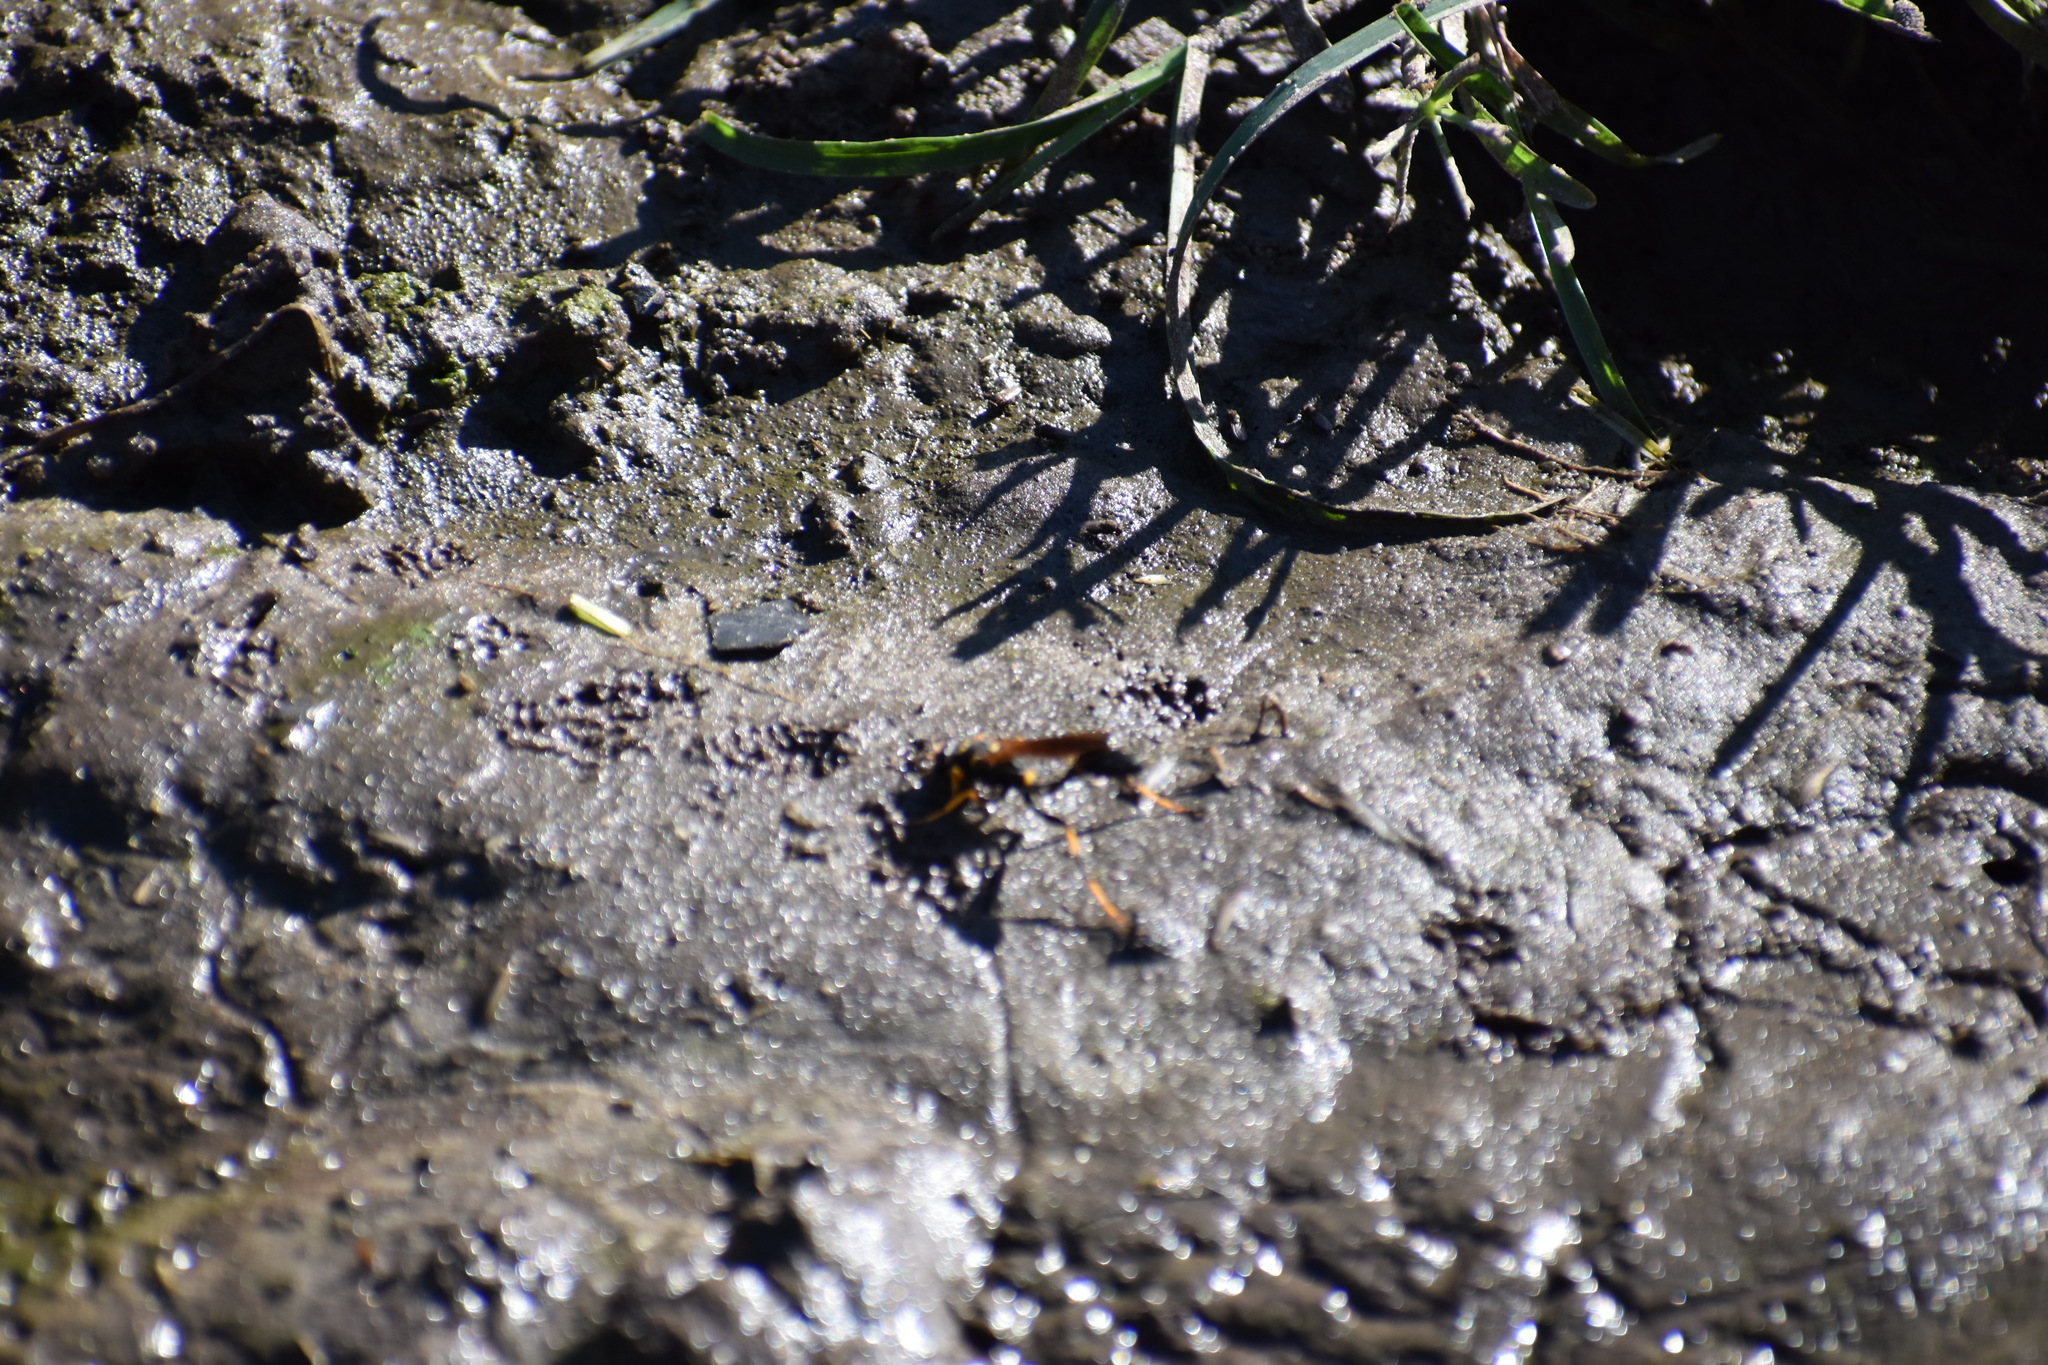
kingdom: Animalia
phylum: Arthropoda
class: Insecta
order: Hymenoptera
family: Sphecidae
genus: Sceliphron
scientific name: Sceliphron caementarium
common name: Mud dauber
